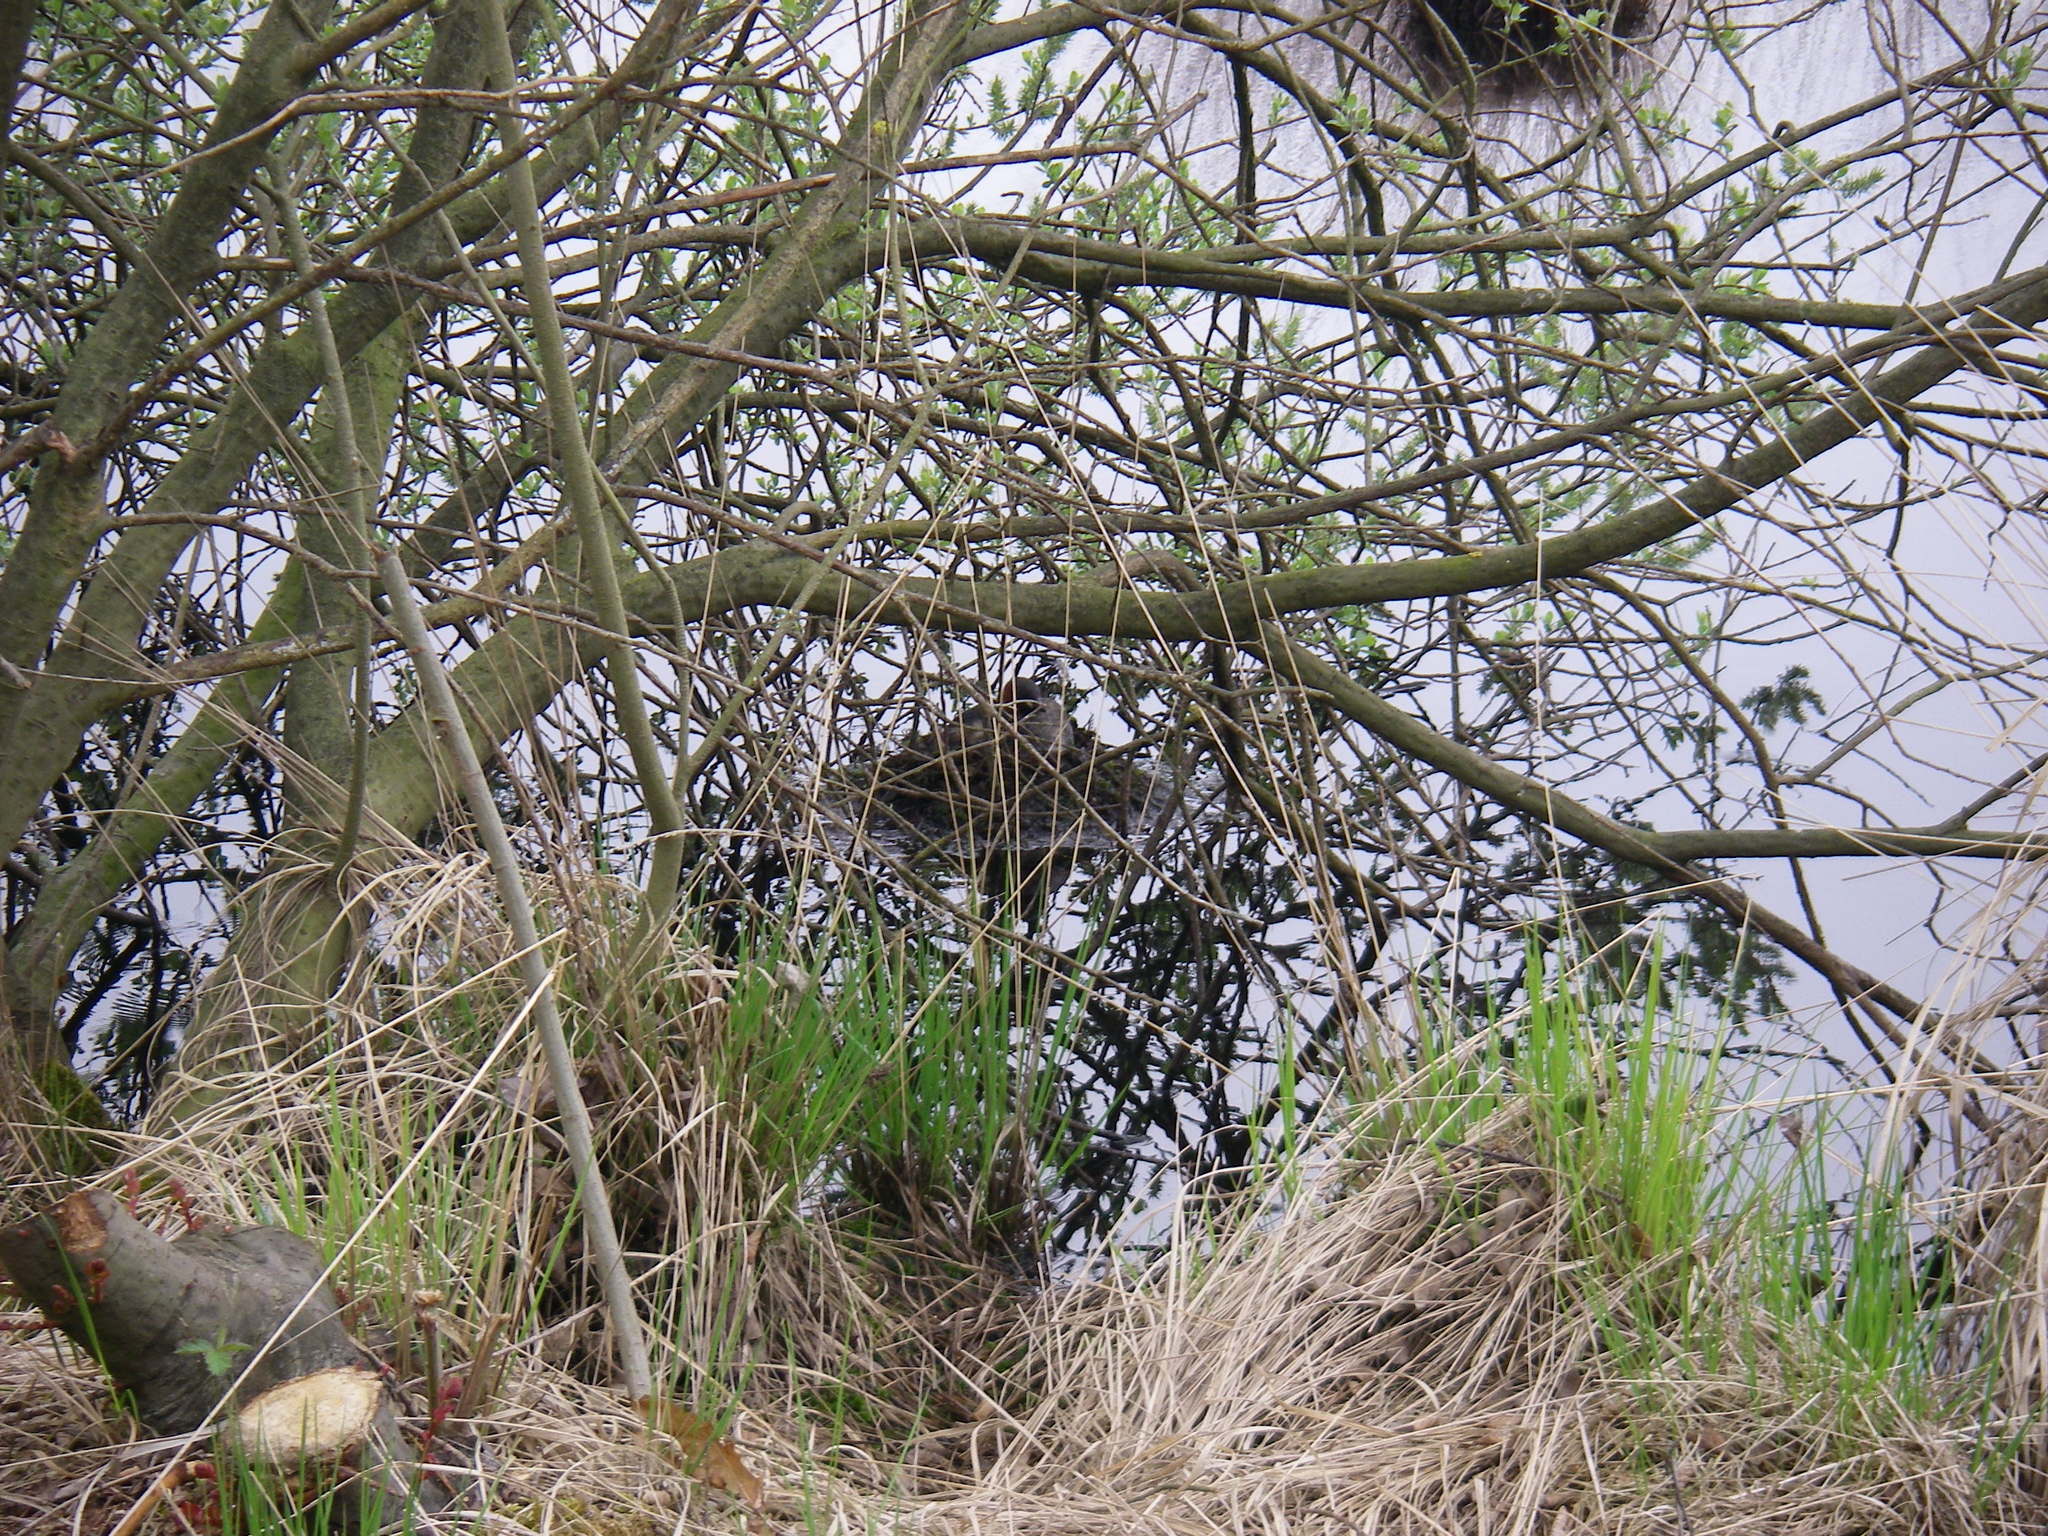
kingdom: Animalia
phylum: Chordata
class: Aves
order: Podicipediformes
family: Podicipedidae
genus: Tachybaptus
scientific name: Tachybaptus ruficollis
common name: Little grebe
